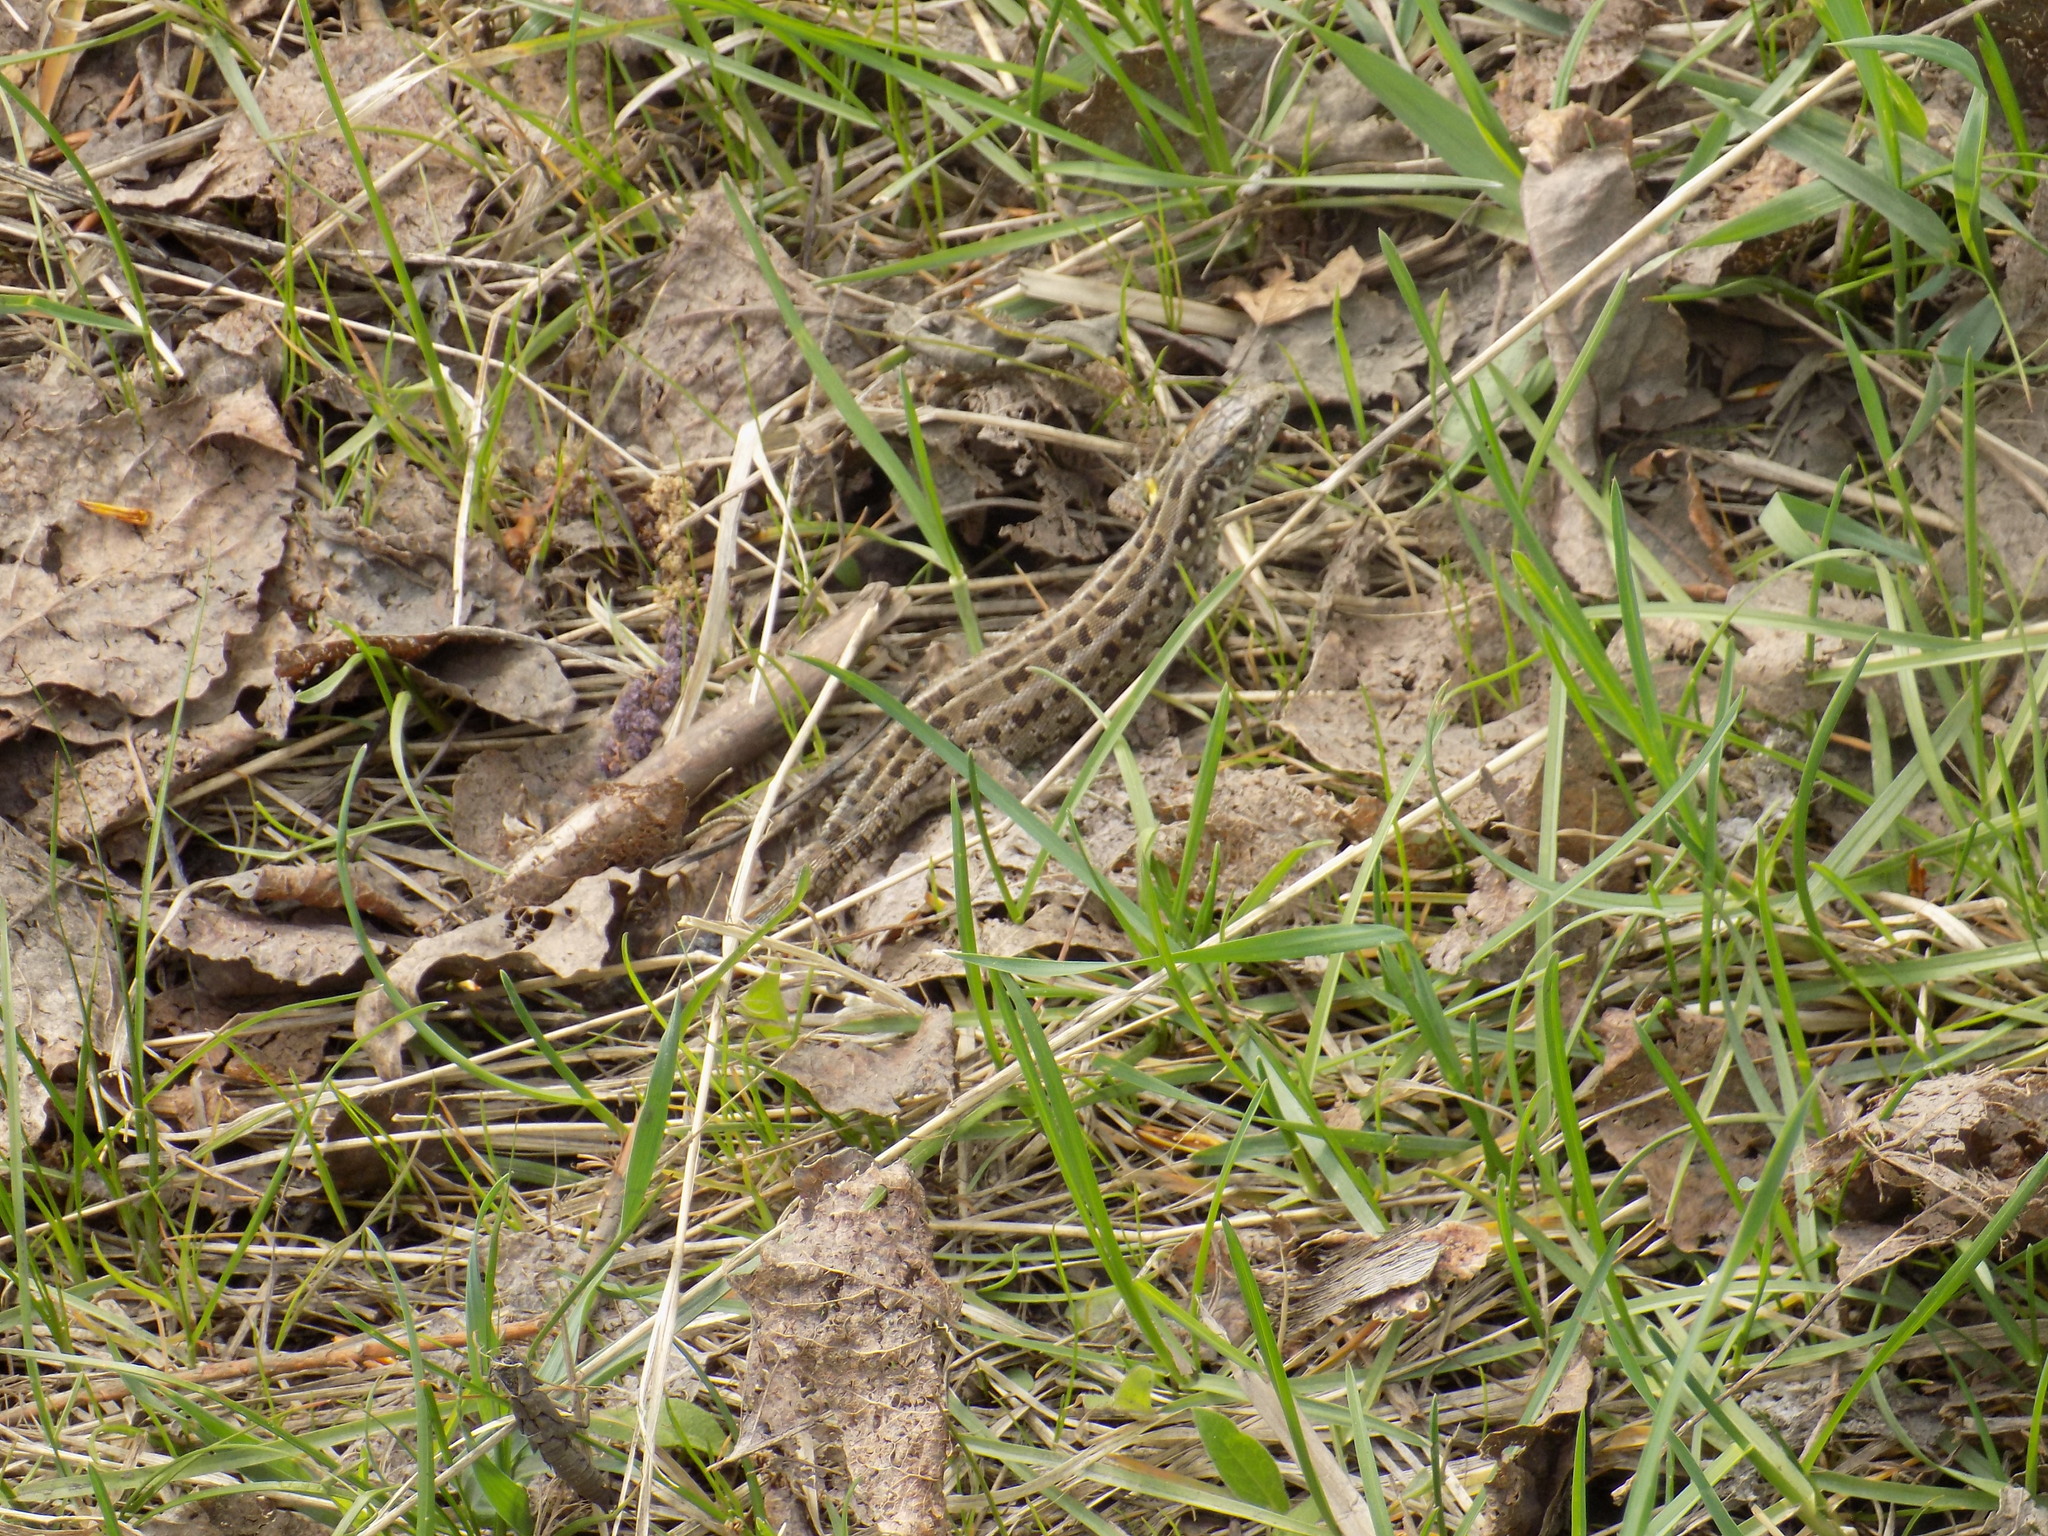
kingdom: Animalia
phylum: Chordata
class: Squamata
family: Lacertidae
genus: Lacerta
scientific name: Lacerta agilis
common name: Sand lizard
